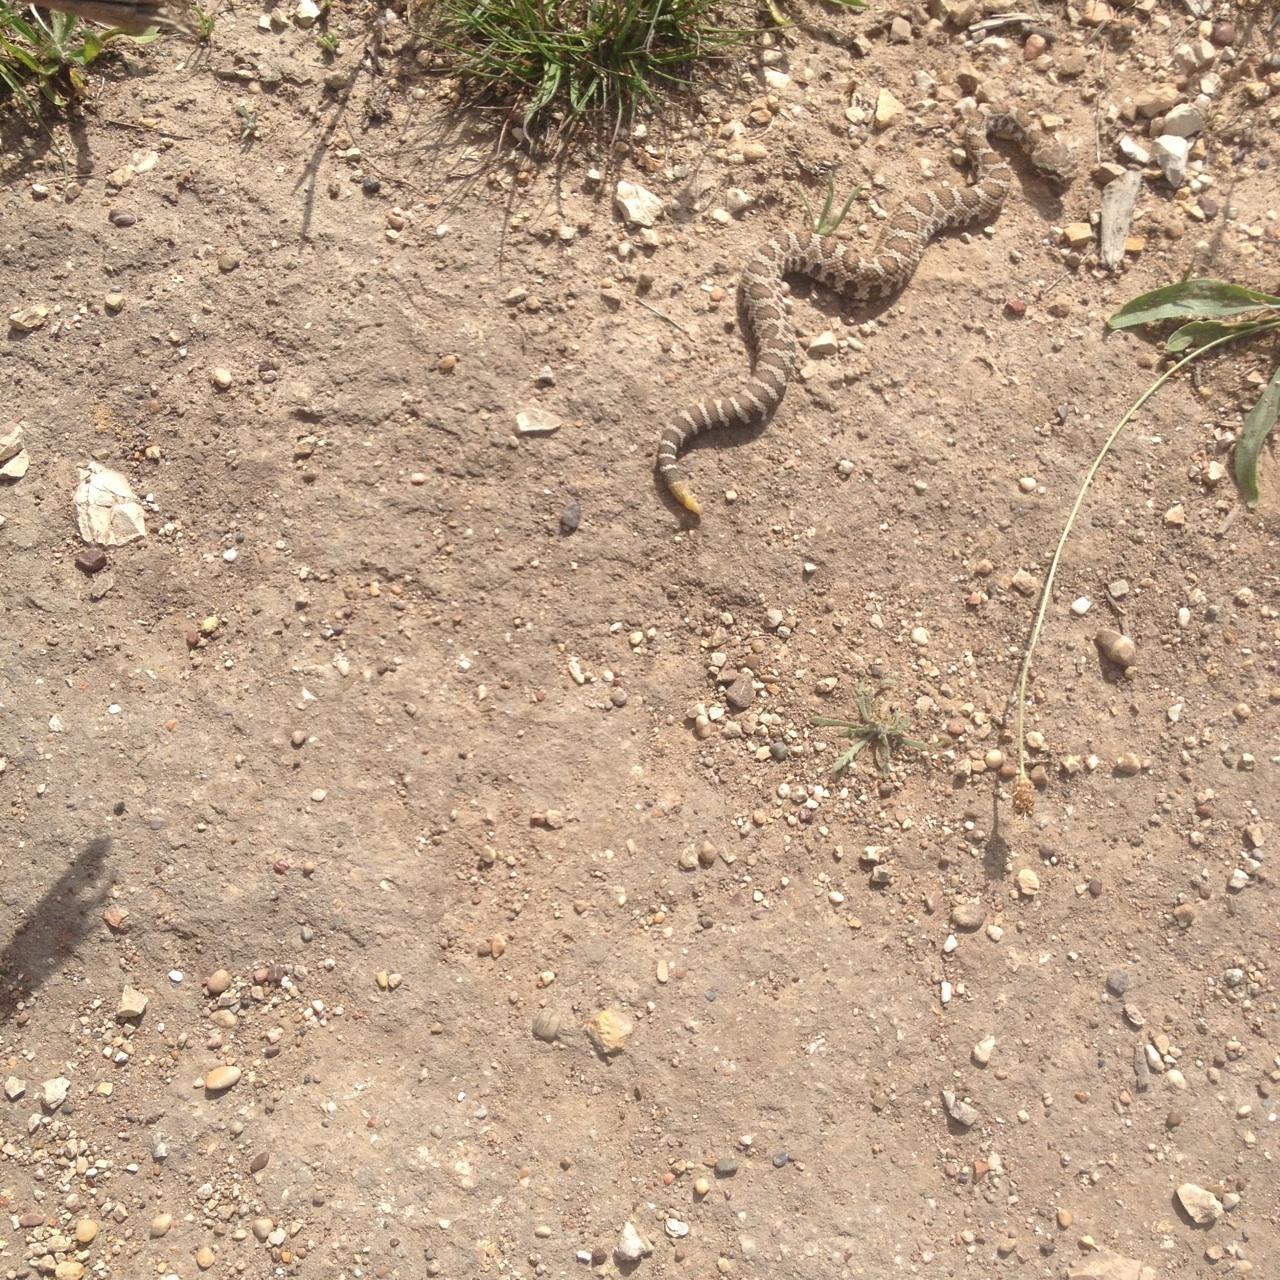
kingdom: Animalia
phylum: Chordata
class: Squamata
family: Viperidae
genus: Crotalus
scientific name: Crotalus oreganus
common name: Abyssus
